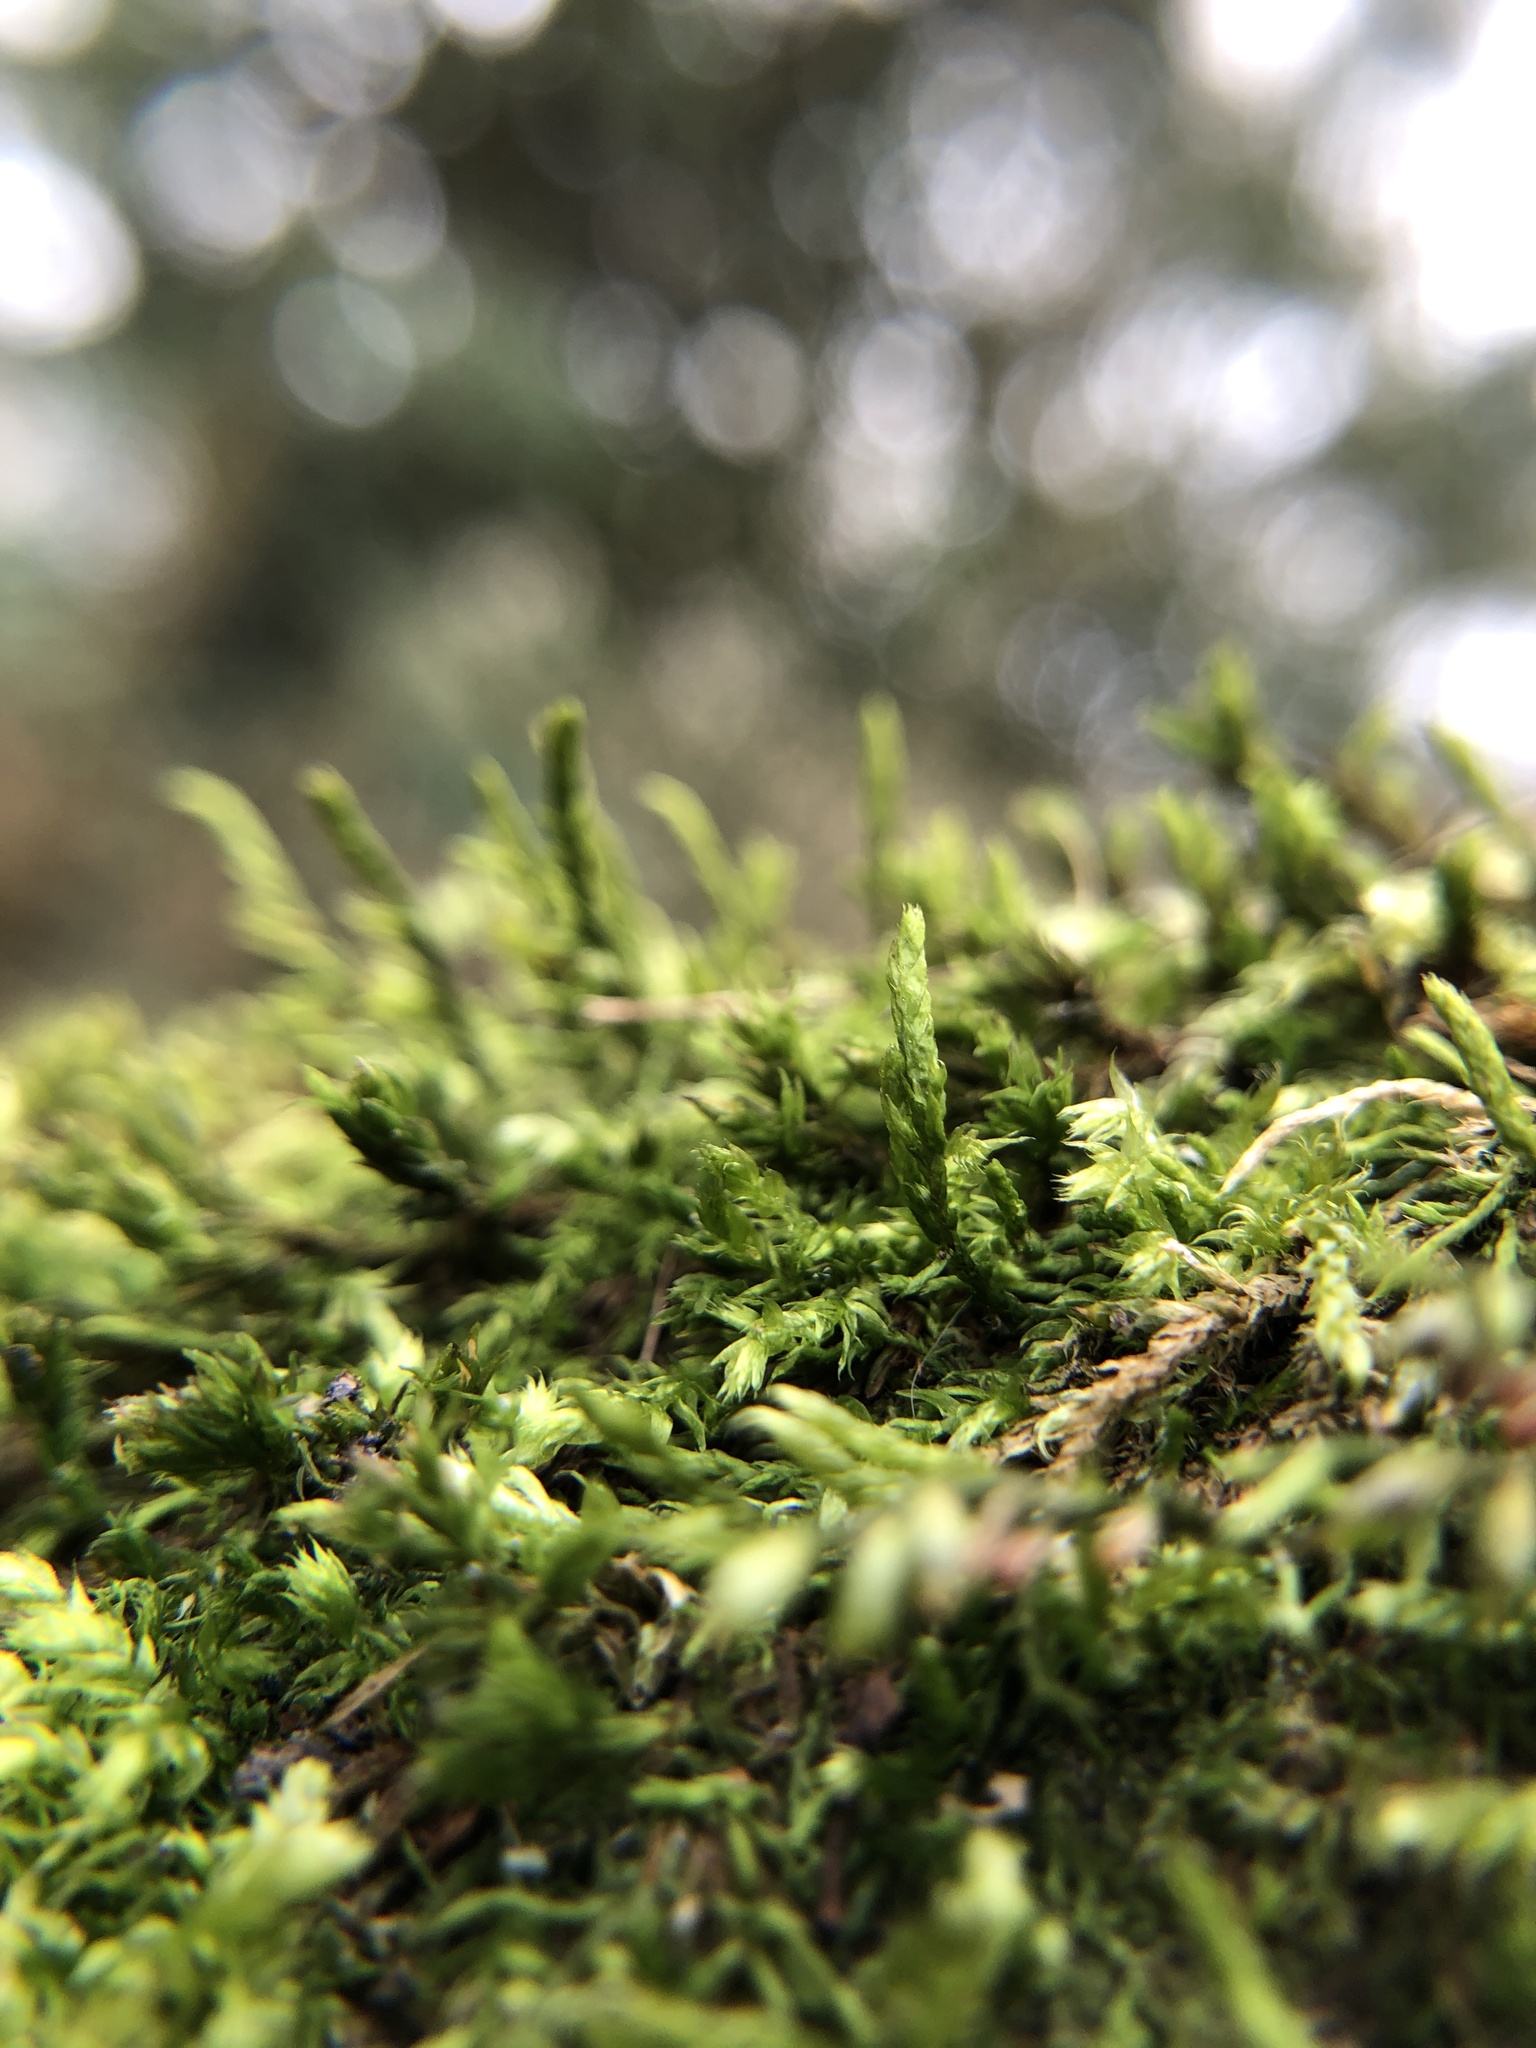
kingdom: Plantae
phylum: Bryophyta
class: Bryopsida
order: Hypnales
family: Cryphaeaceae
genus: Cryphaea
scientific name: Cryphaea heteromalla
